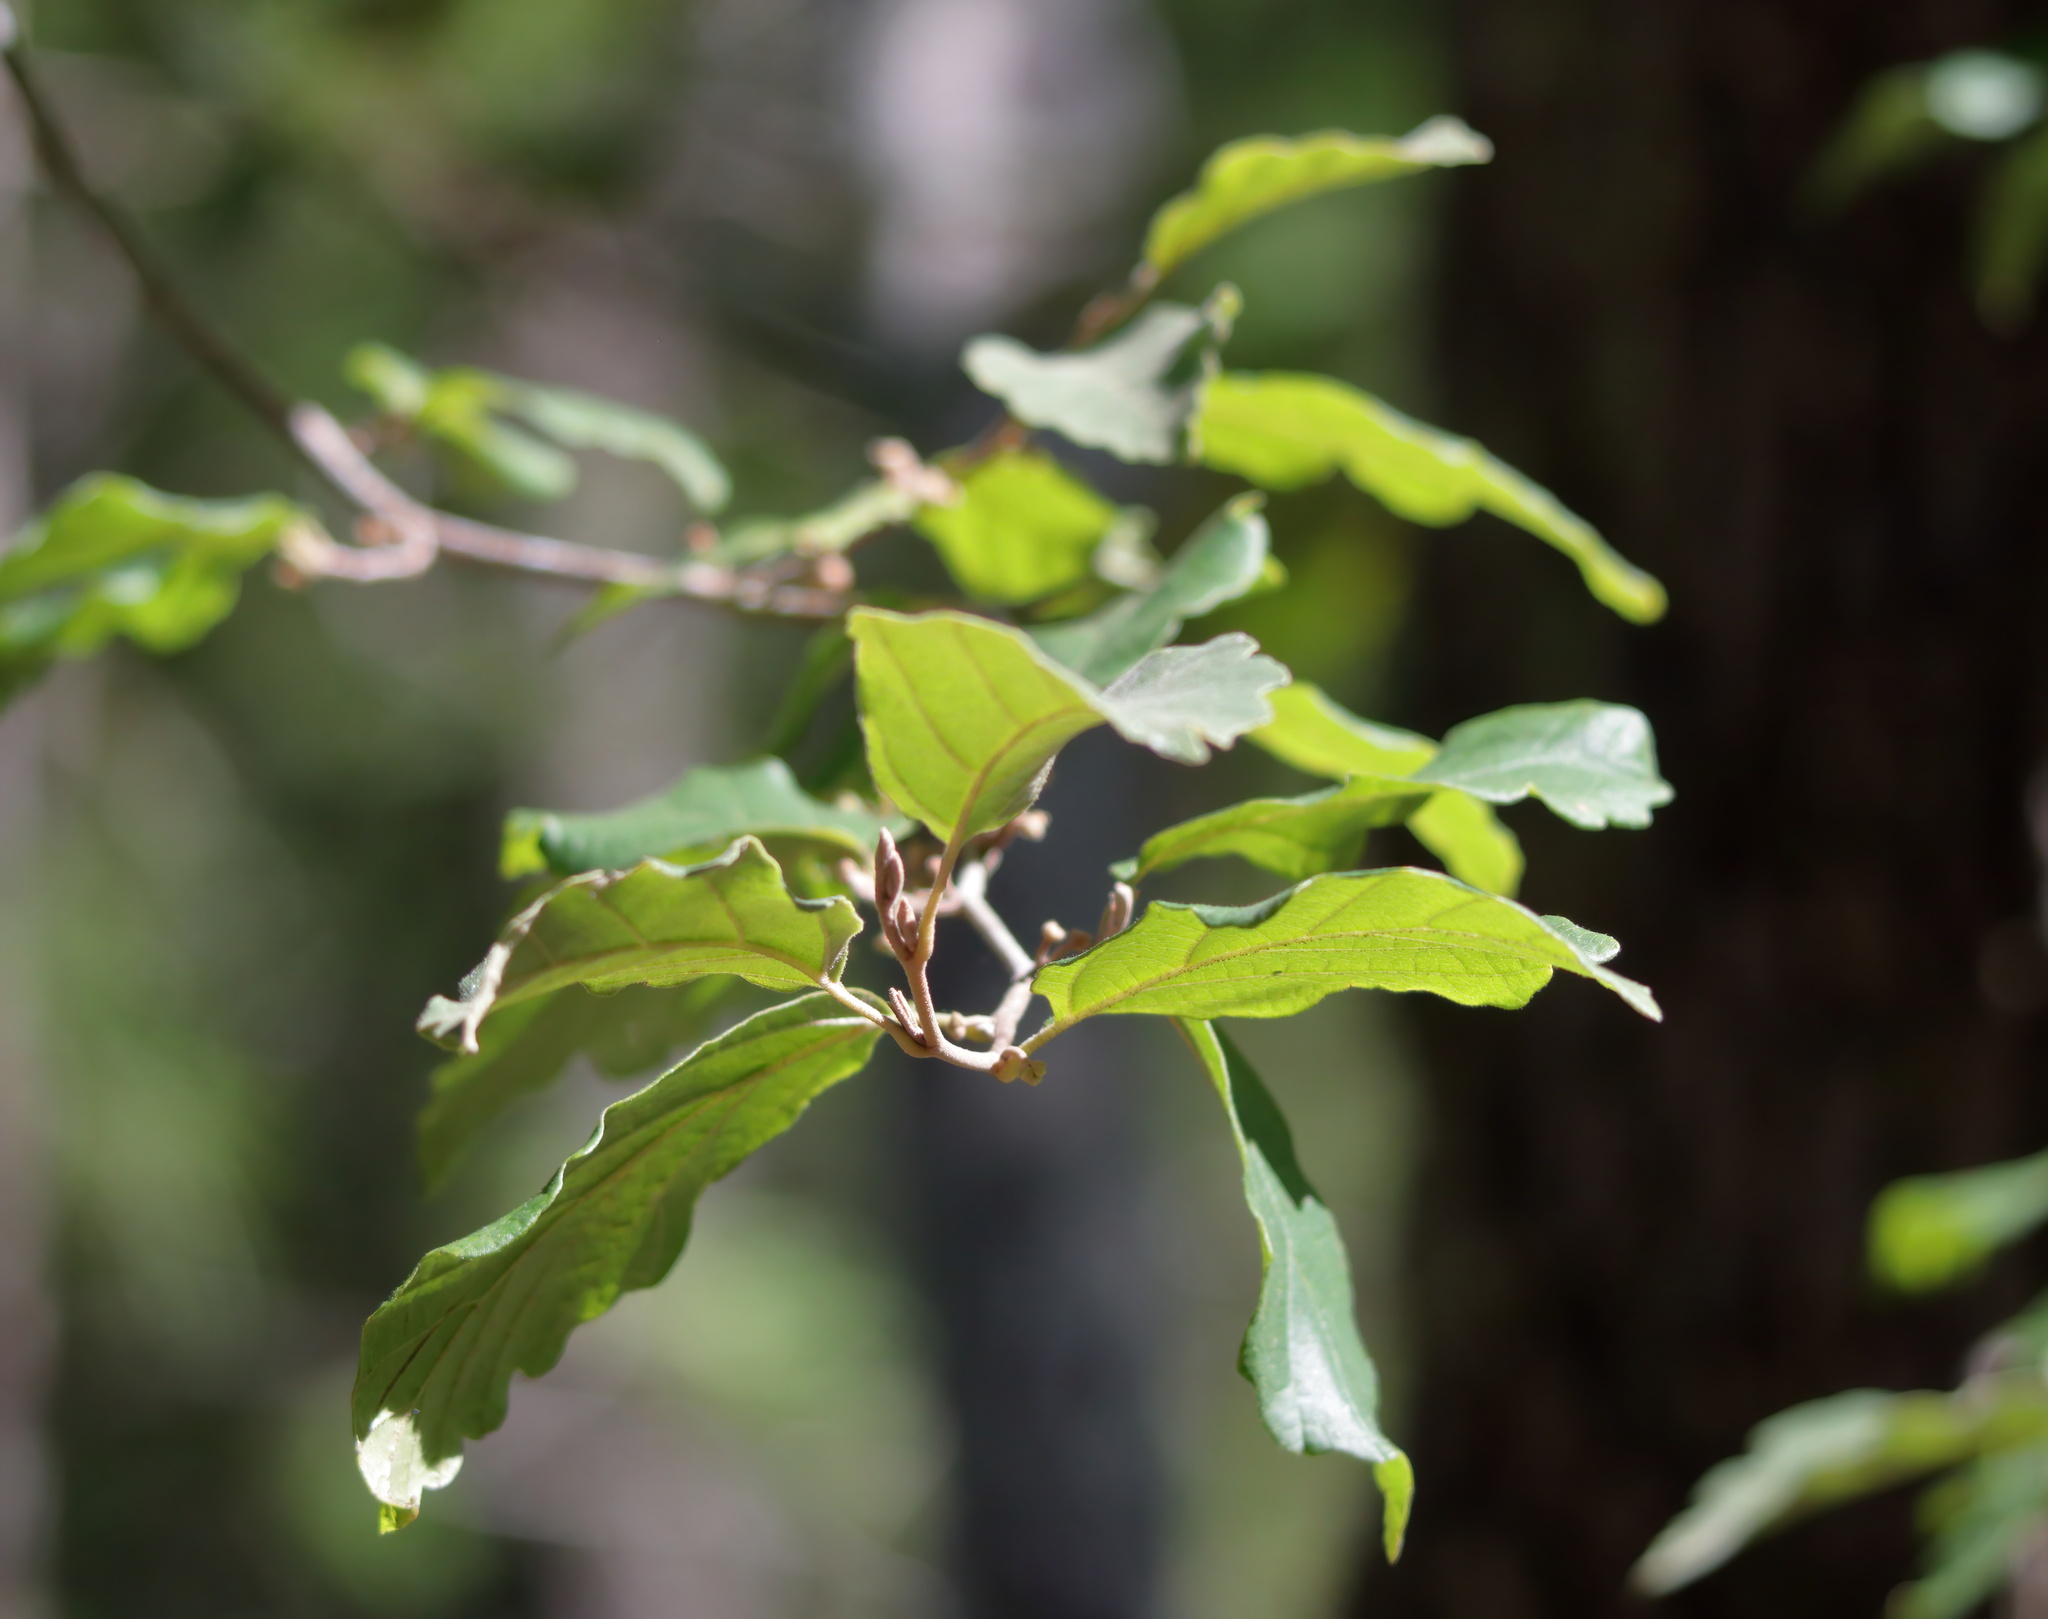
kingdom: Plantae
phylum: Tracheophyta
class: Magnoliopsida
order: Saxifragales
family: Hamamelidaceae
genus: Hamamelis
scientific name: Hamamelis virginiana
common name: Witch-hazel
